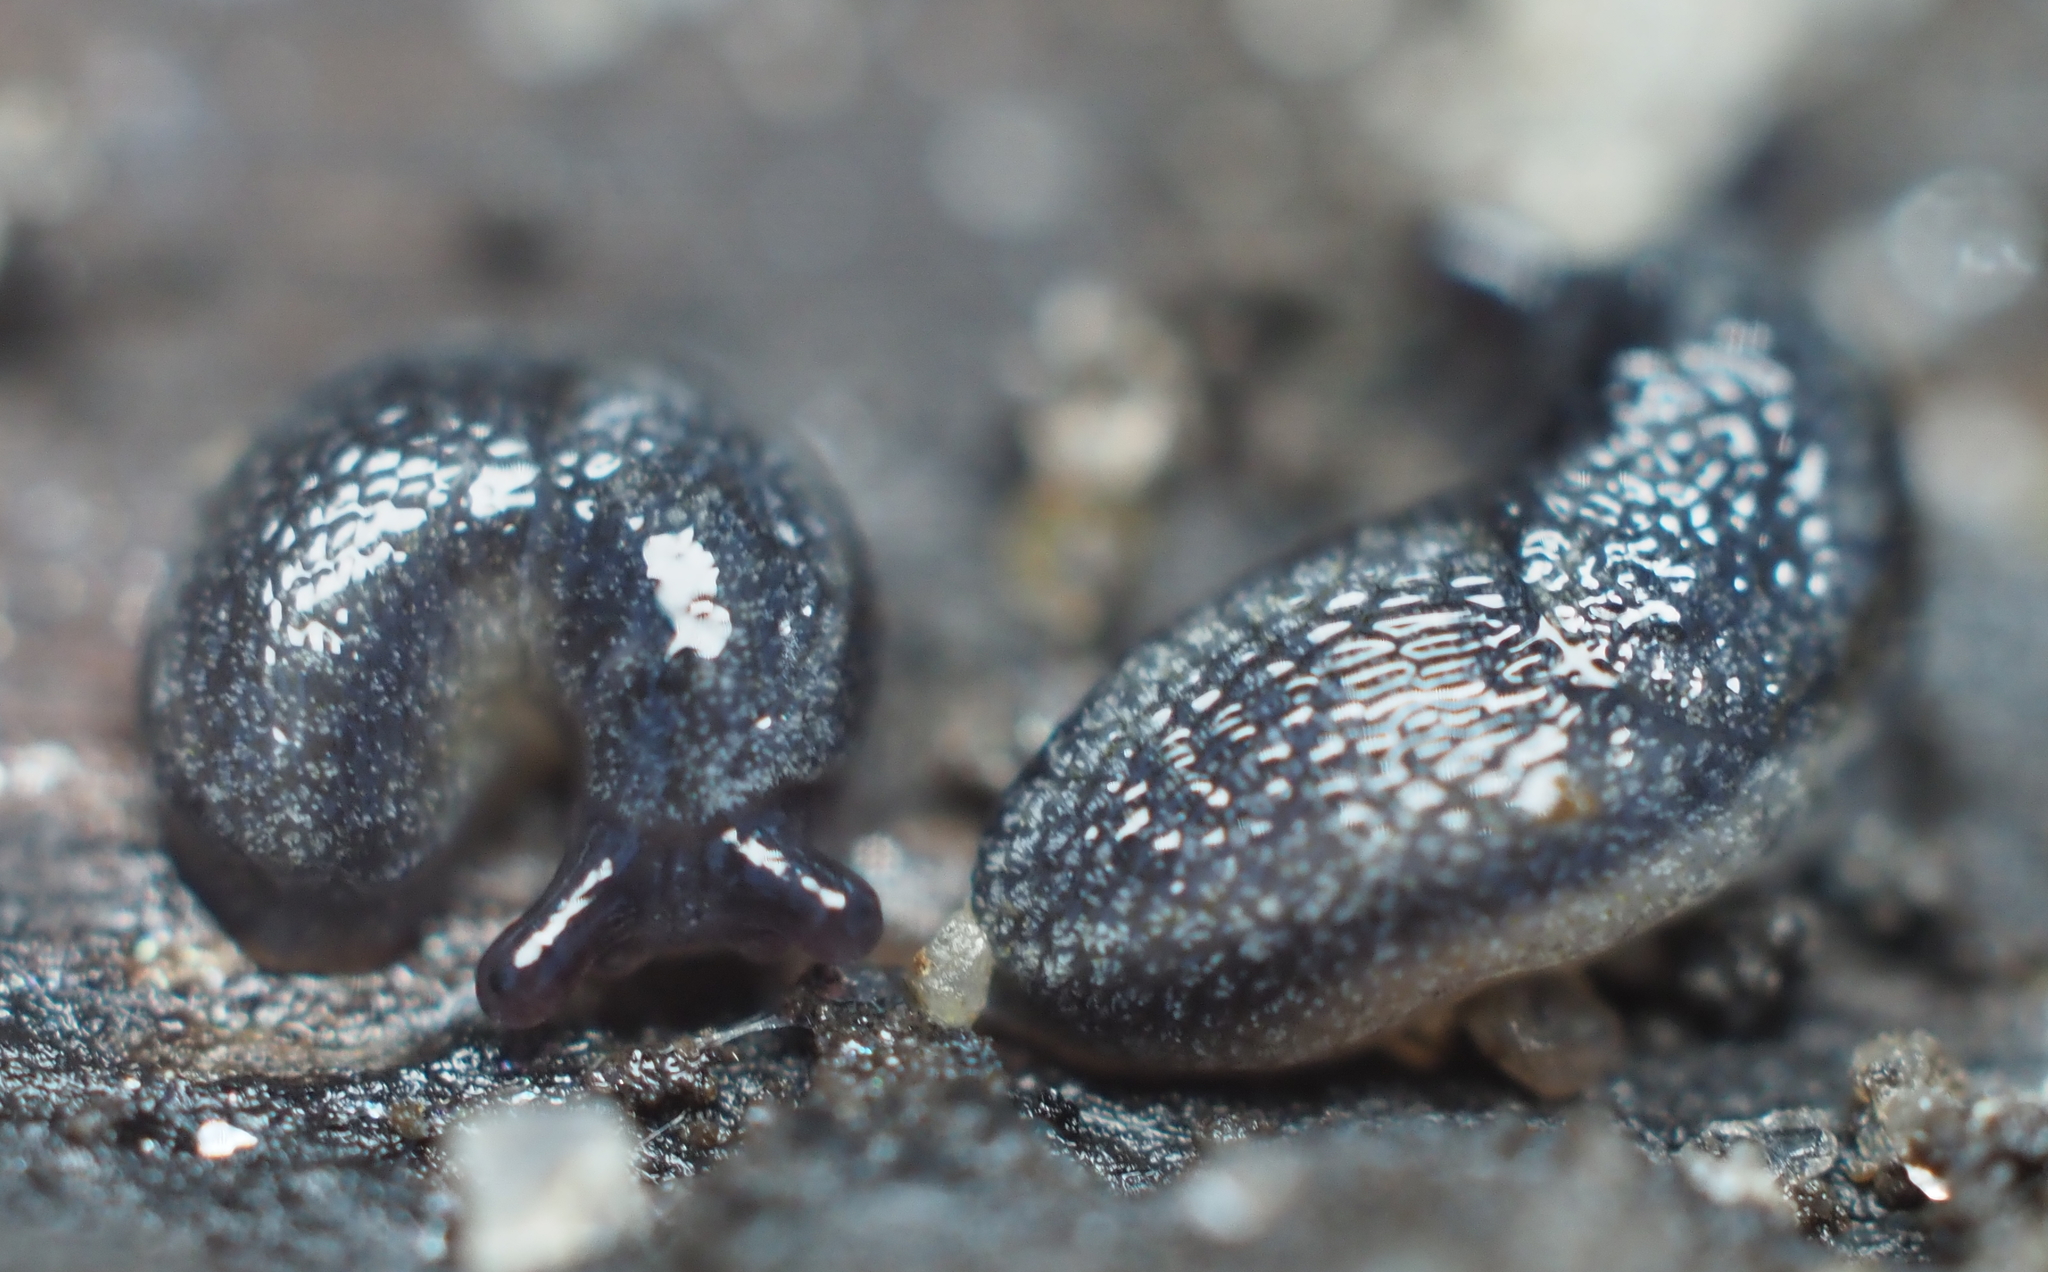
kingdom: Animalia
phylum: Mollusca
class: Gastropoda
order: Stylommatophora
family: Arionidae
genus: Arion
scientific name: Arion hortensis
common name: Garden arion
